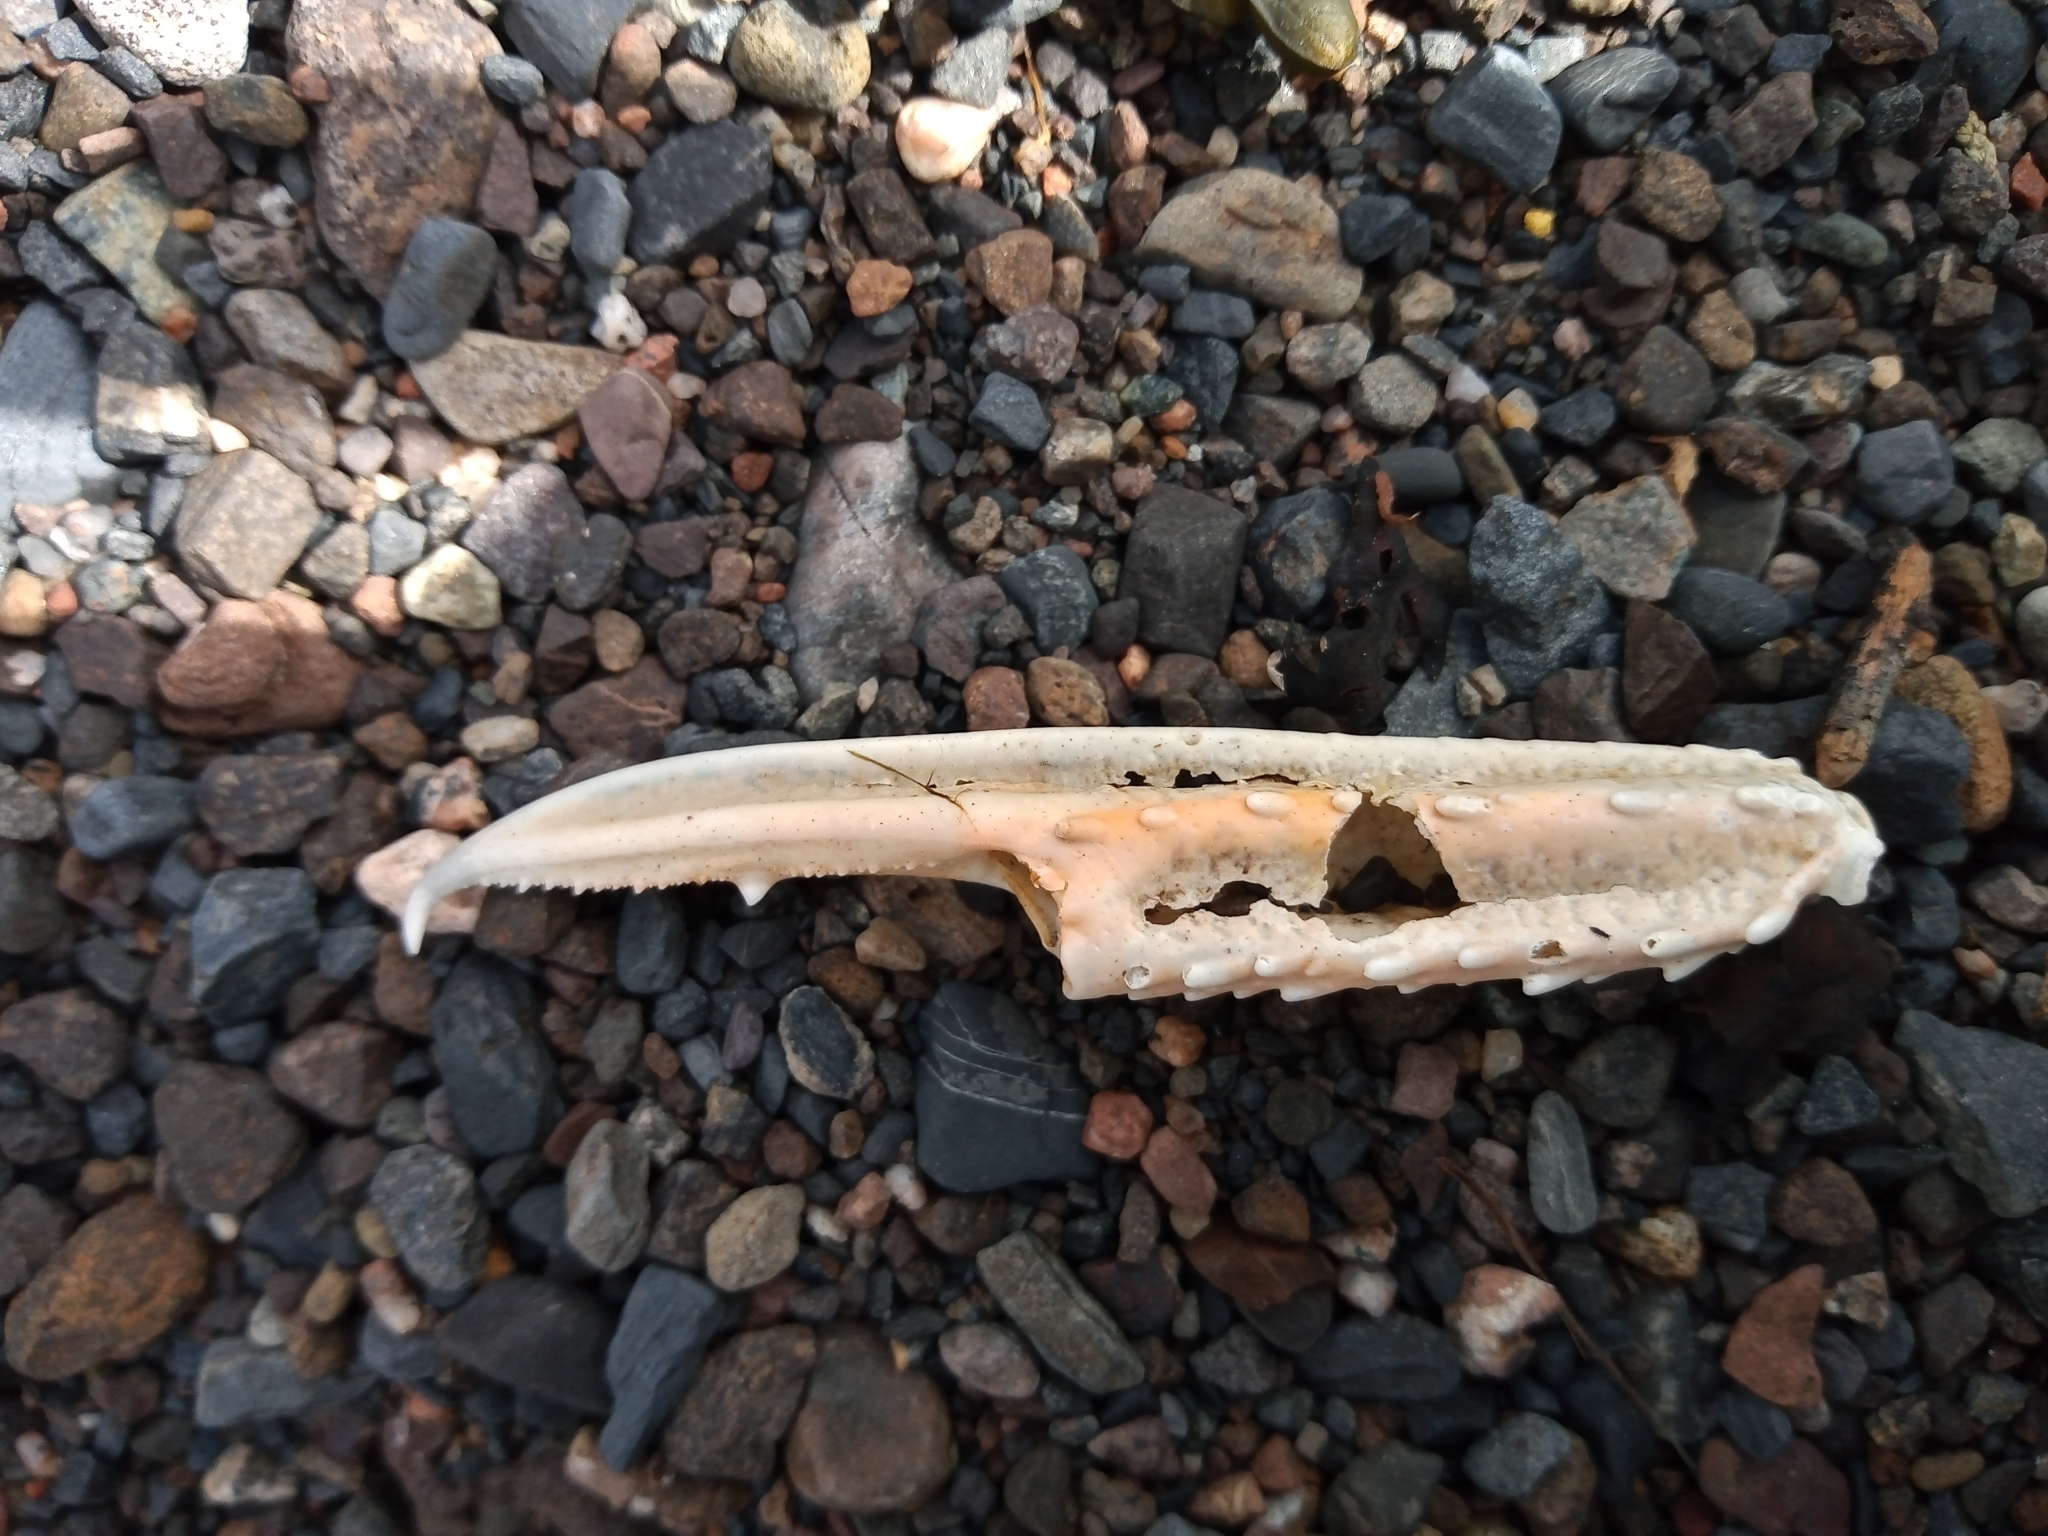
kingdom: Animalia
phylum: Arthropoda
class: Malacostraca
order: Decapoda
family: Nephropidae
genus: Nephrops
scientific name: Nephrops norvegicus
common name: Norway lobster
